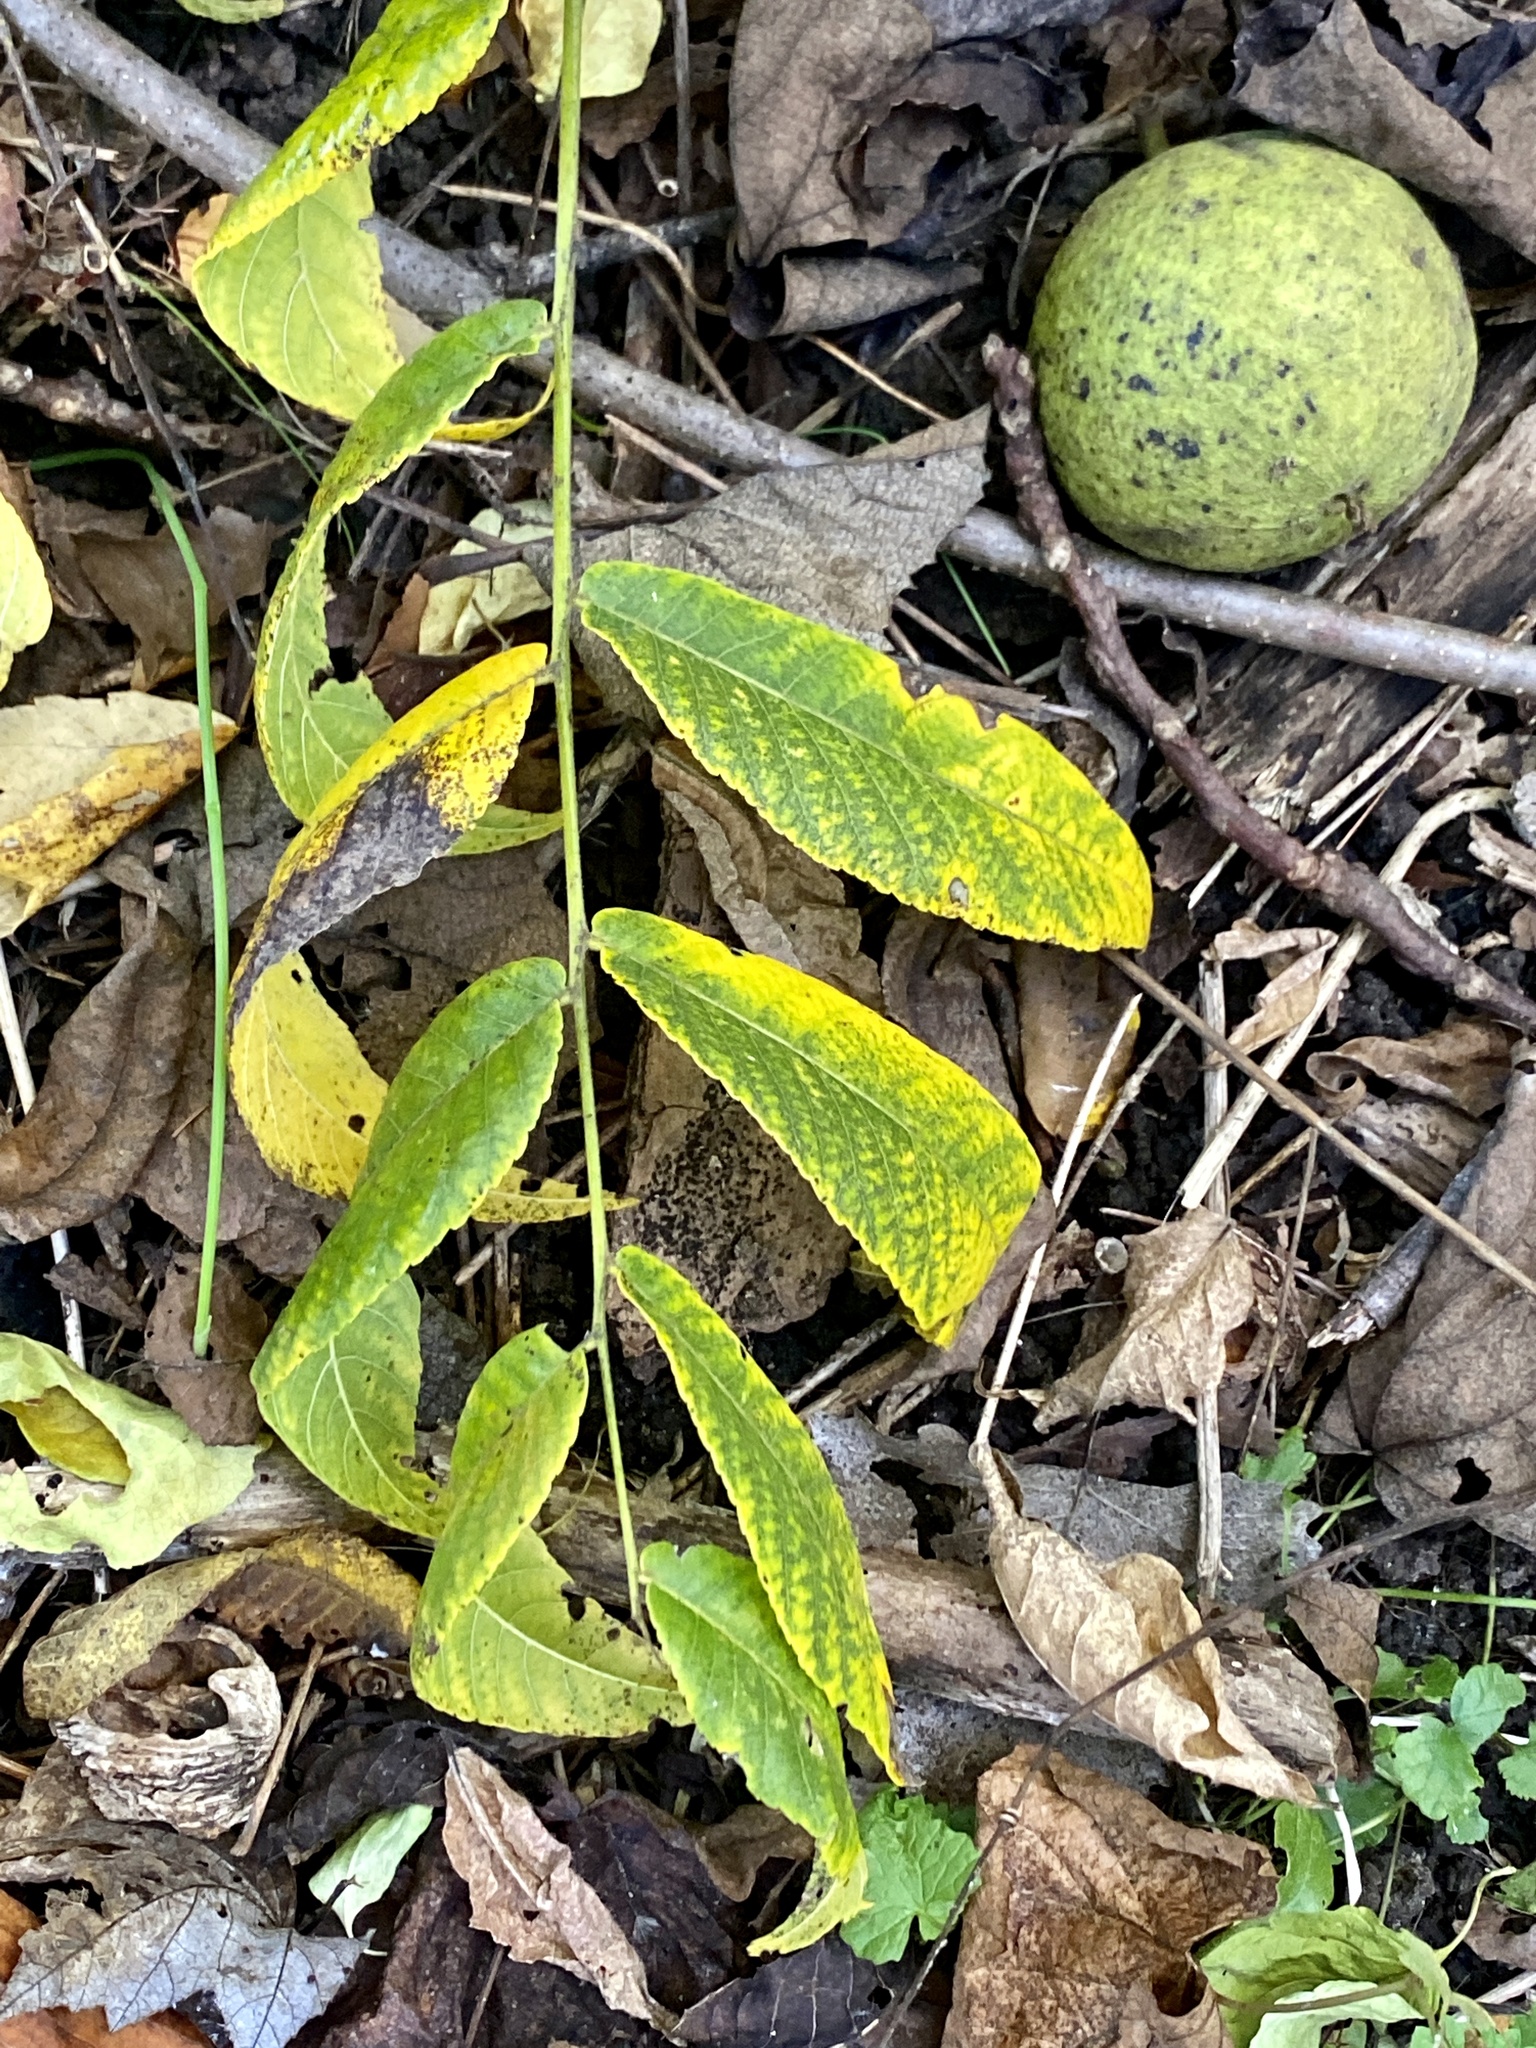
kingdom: Plantae
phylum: Tracheophyta
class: Magnoliopsida
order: Fagales
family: Juglandaceae
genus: Juglans
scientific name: Juglans nigra
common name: Black walnut
